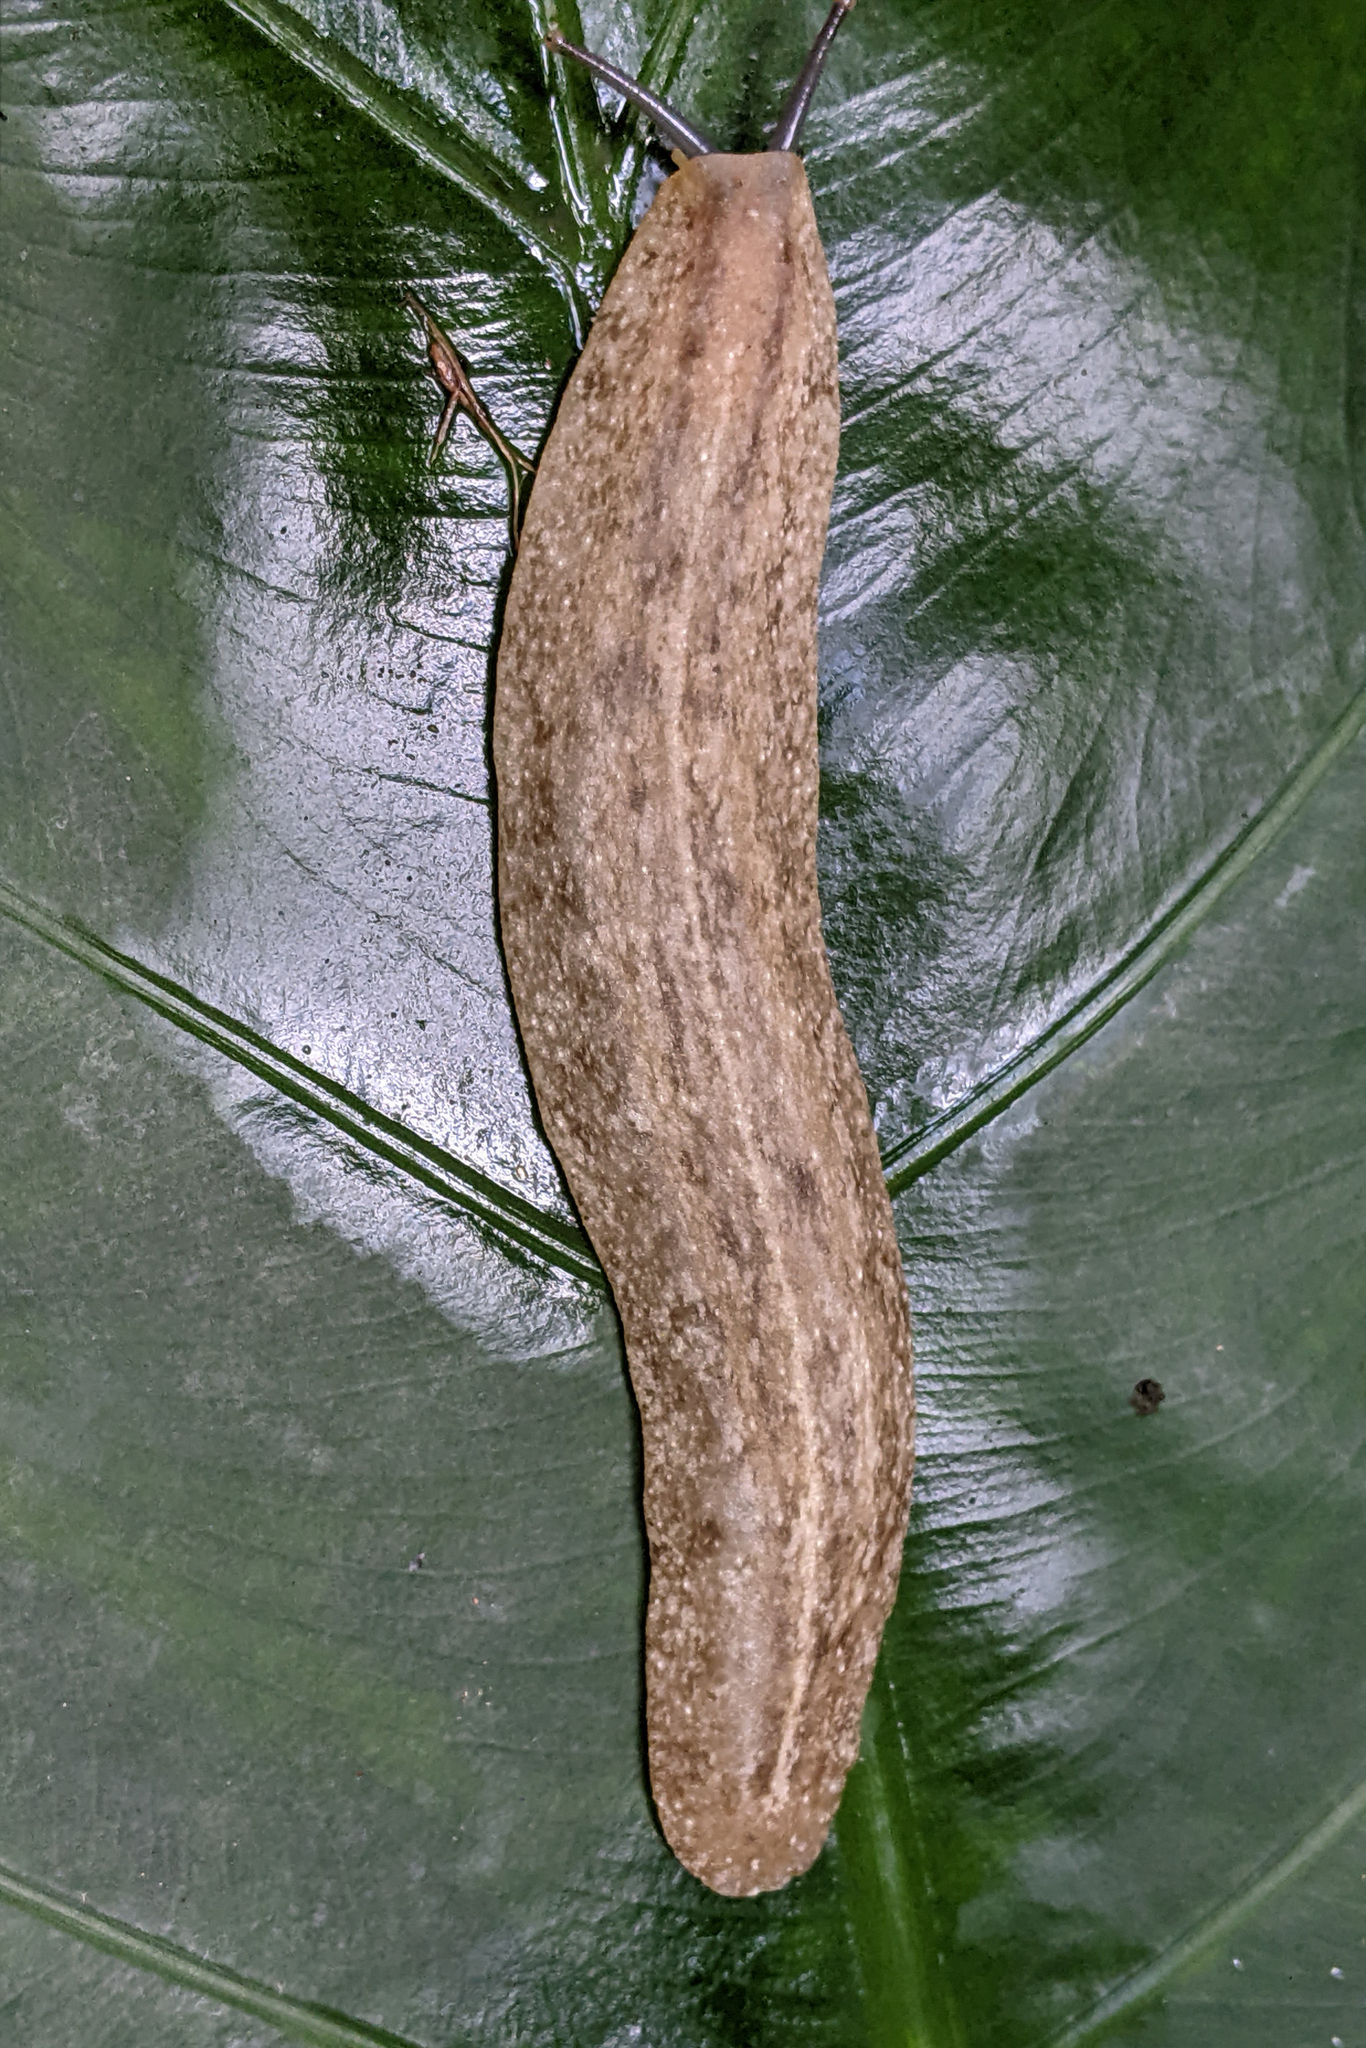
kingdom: Animalia
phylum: Mollusca
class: Gastropoda
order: Systellommatophora
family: Veronicellidae
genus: Leidyula
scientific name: Leidyula sloanii
